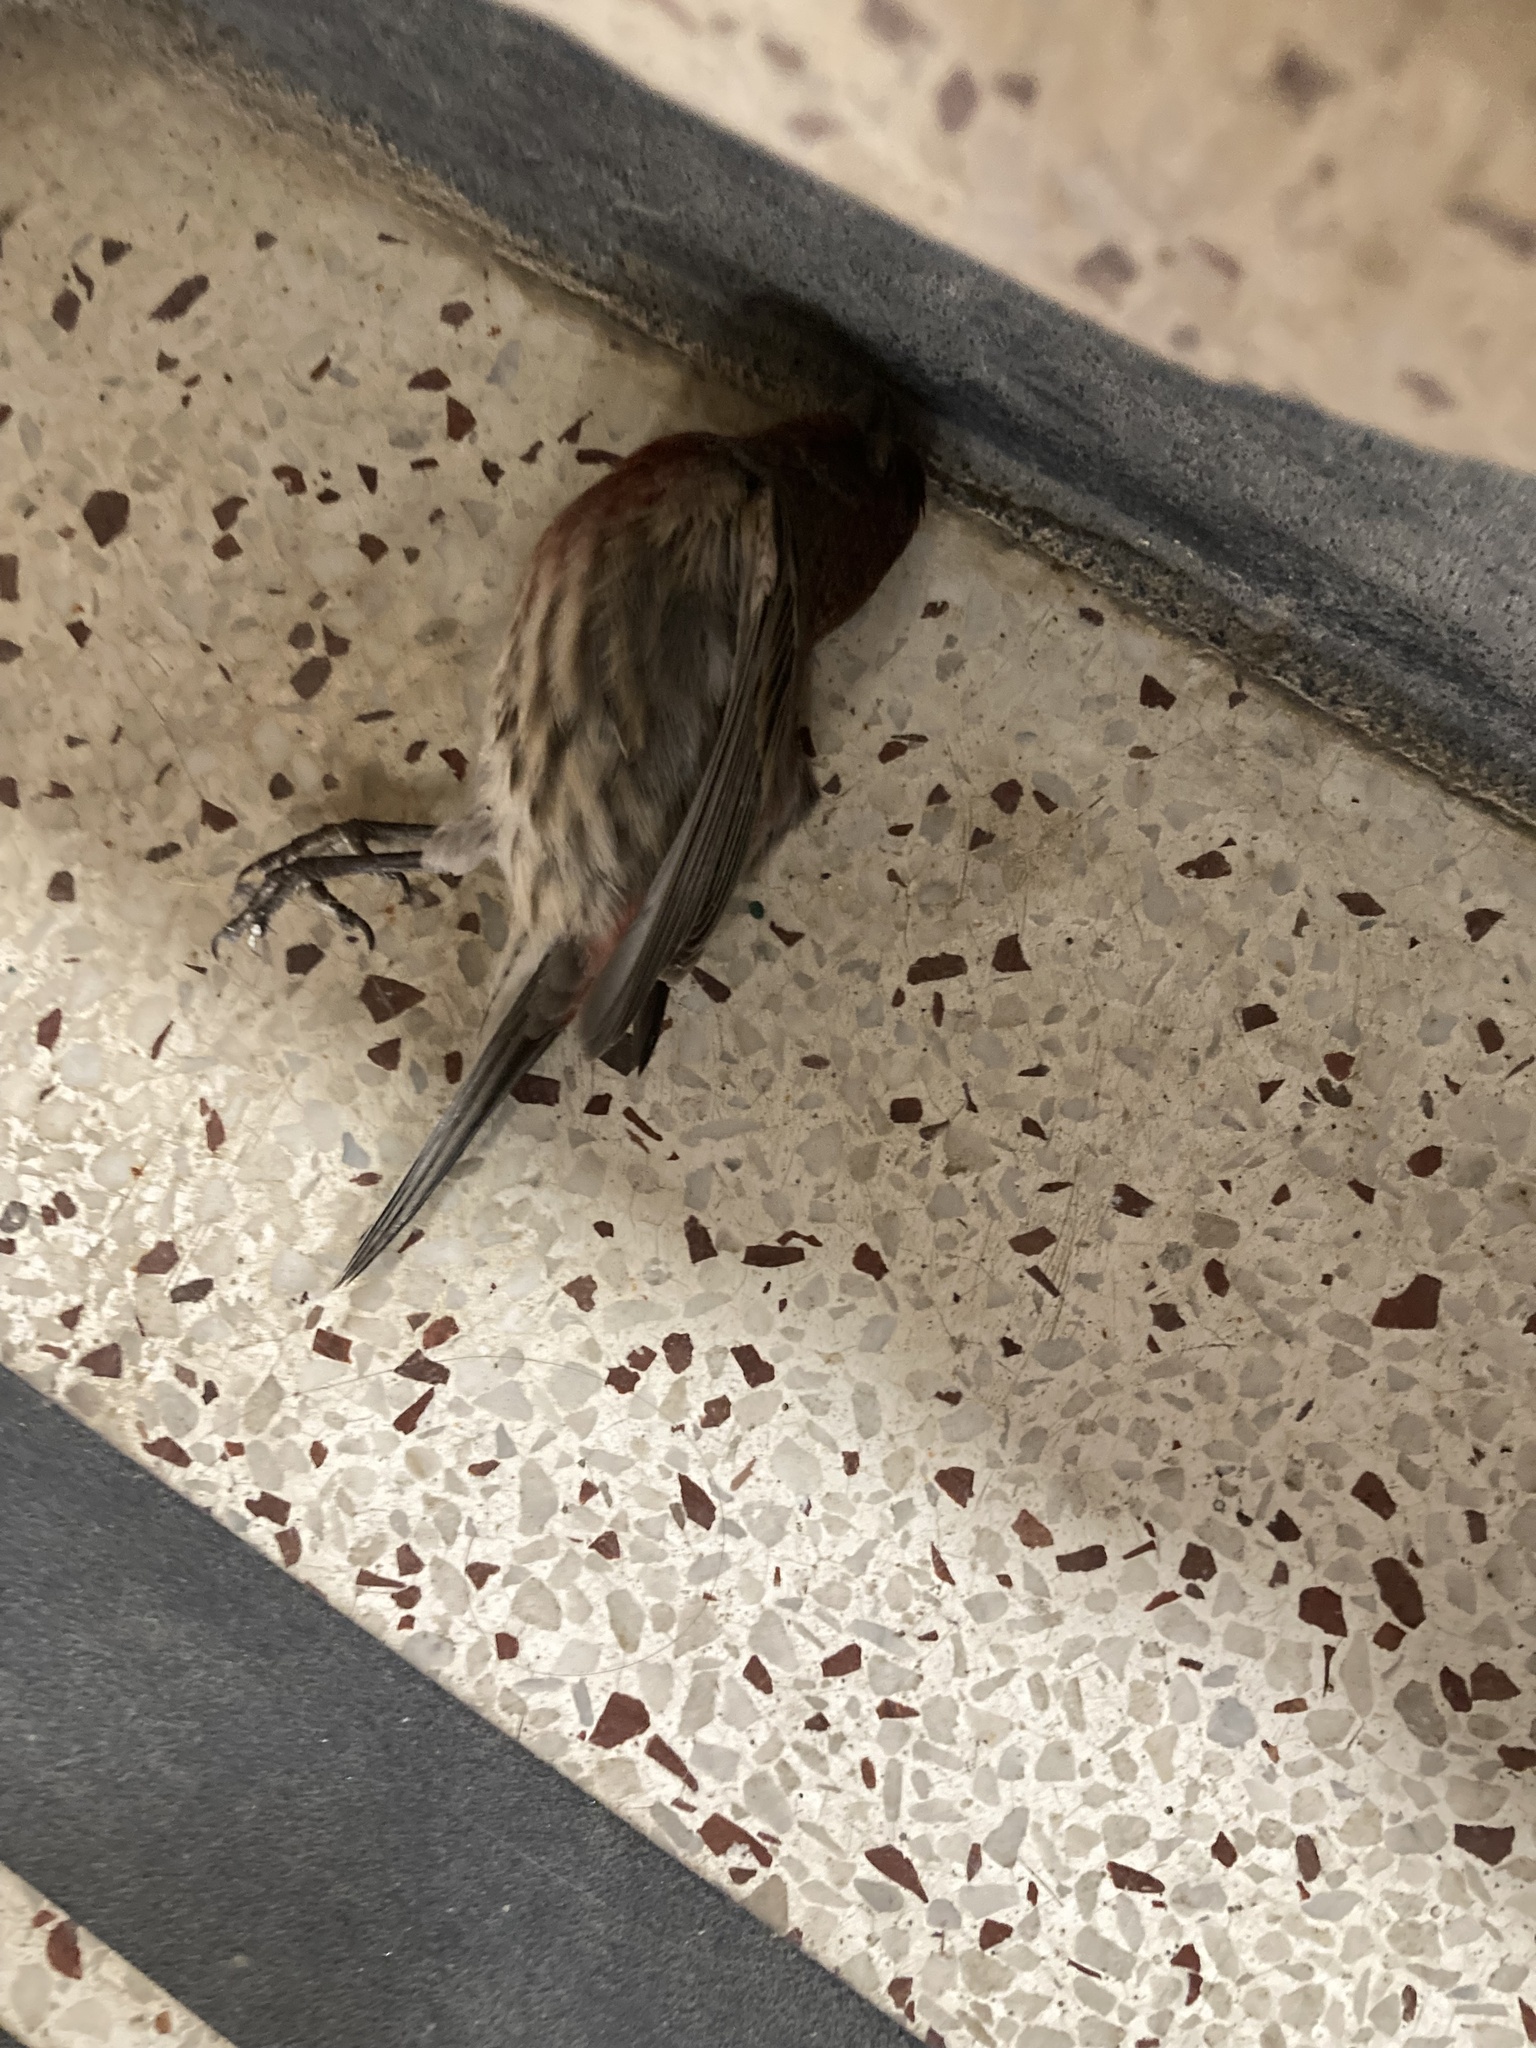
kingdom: Animalia
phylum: Chordata
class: Aves
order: Passeriformes
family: Fringillidae
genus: Haemorhous
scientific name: Haemorhous mexicanus
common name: House finch
